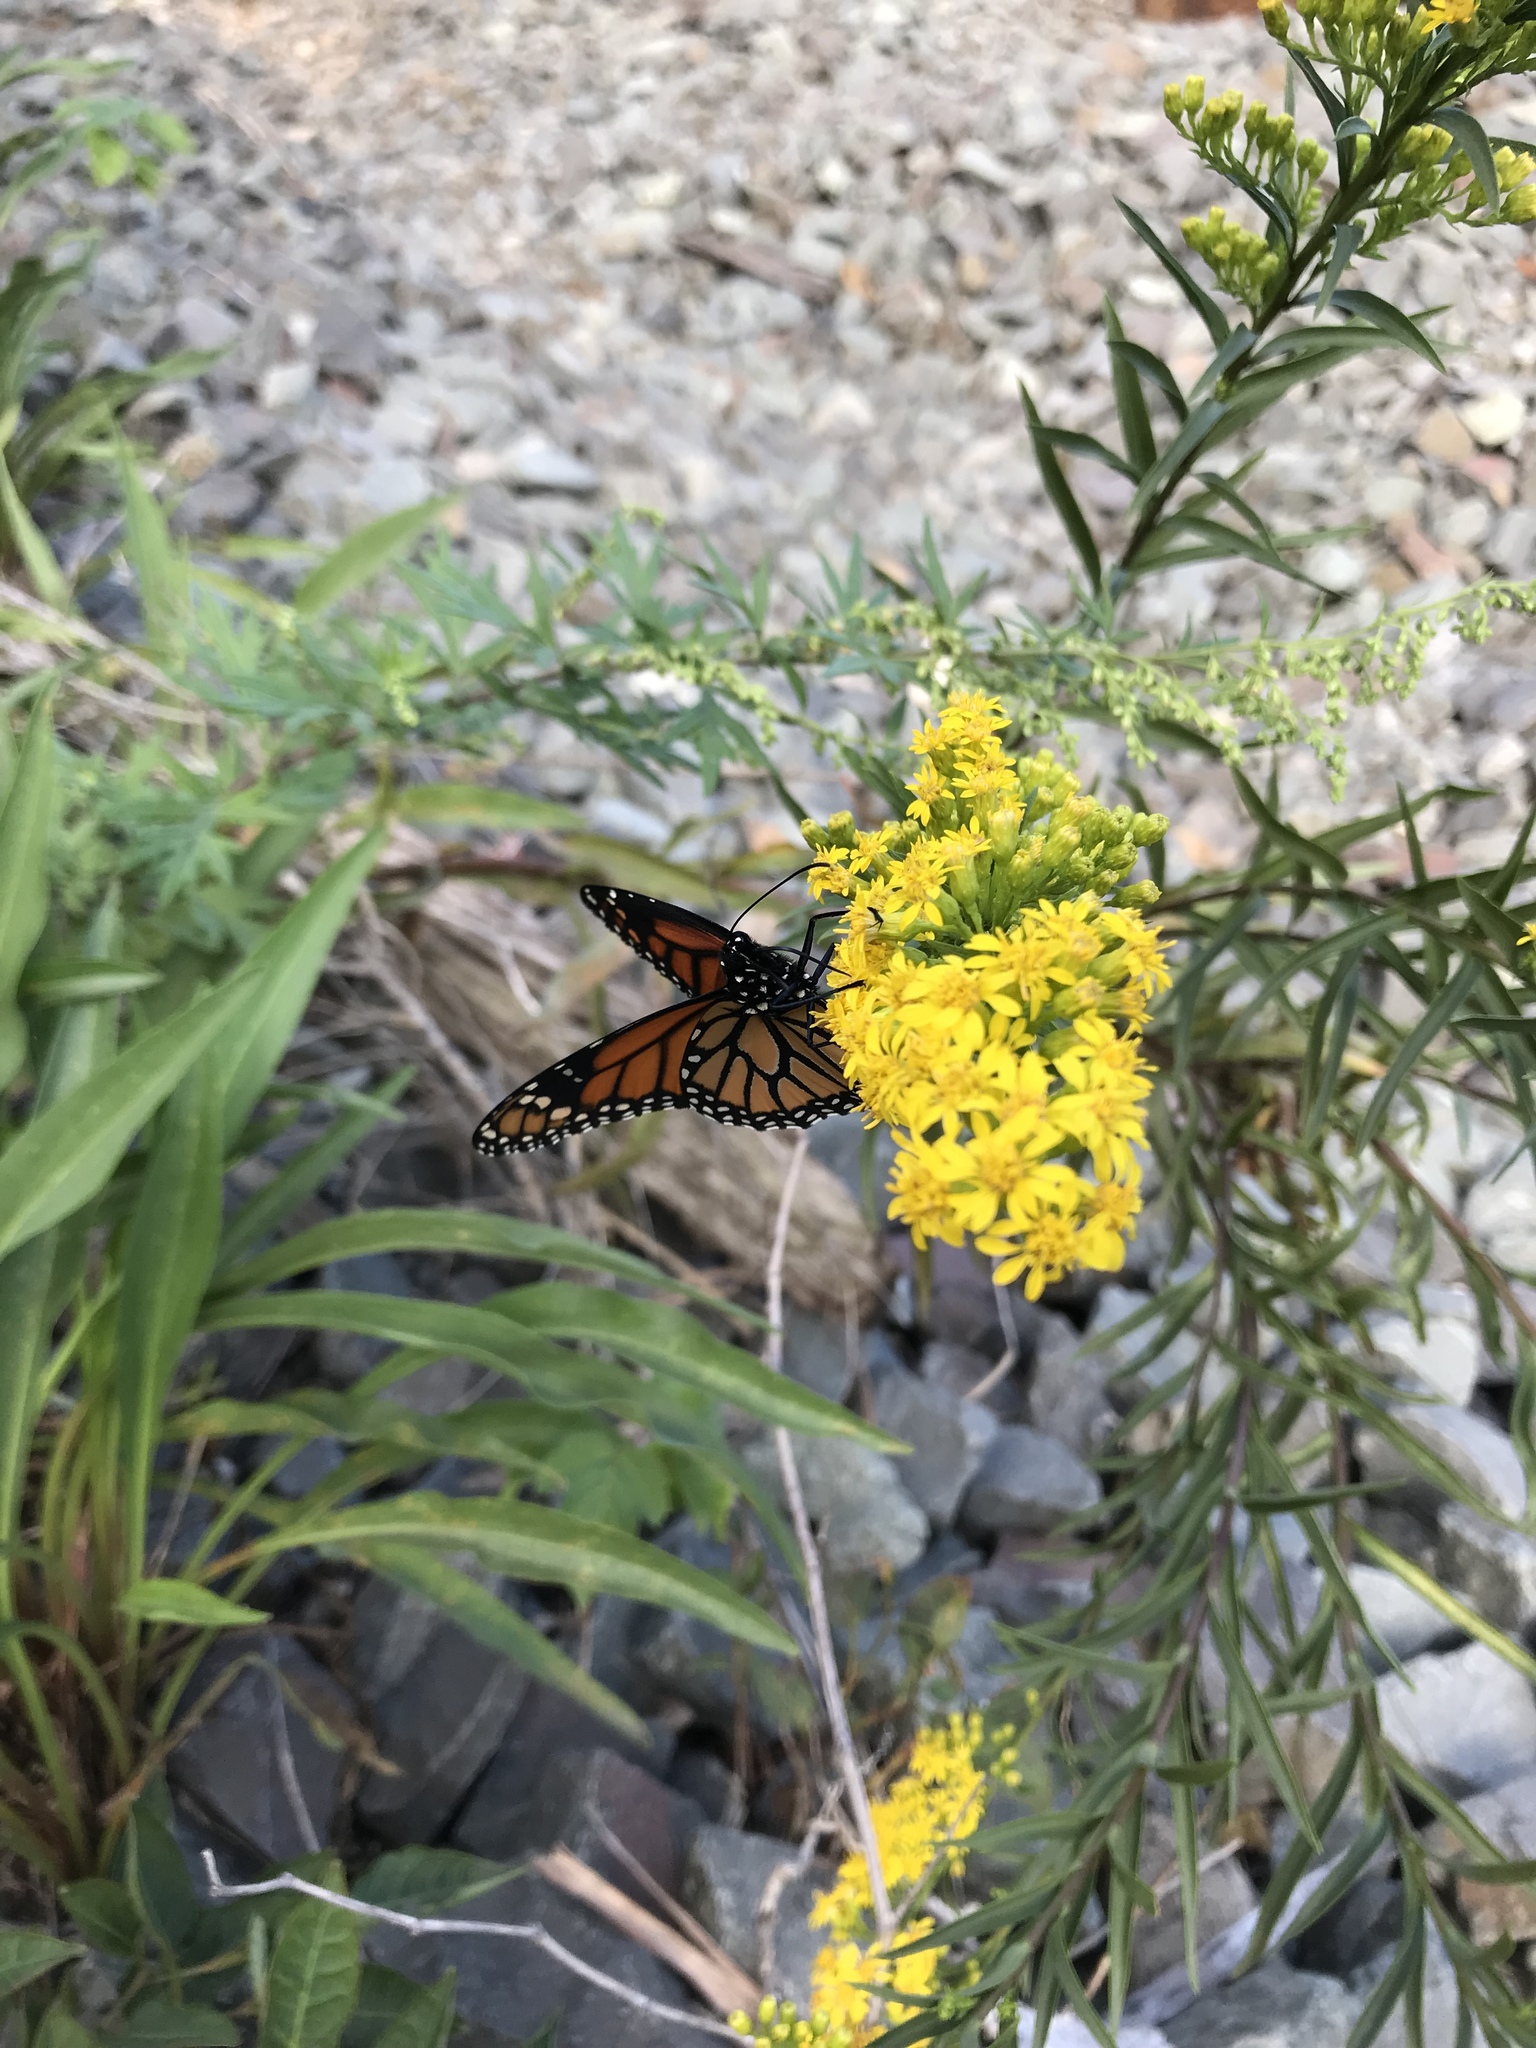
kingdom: Animalia
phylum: Arthropoda
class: Insecta
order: Lepidoptera
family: Nymphalidae
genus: Danaus
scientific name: Danaus plexippus
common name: Monarch
